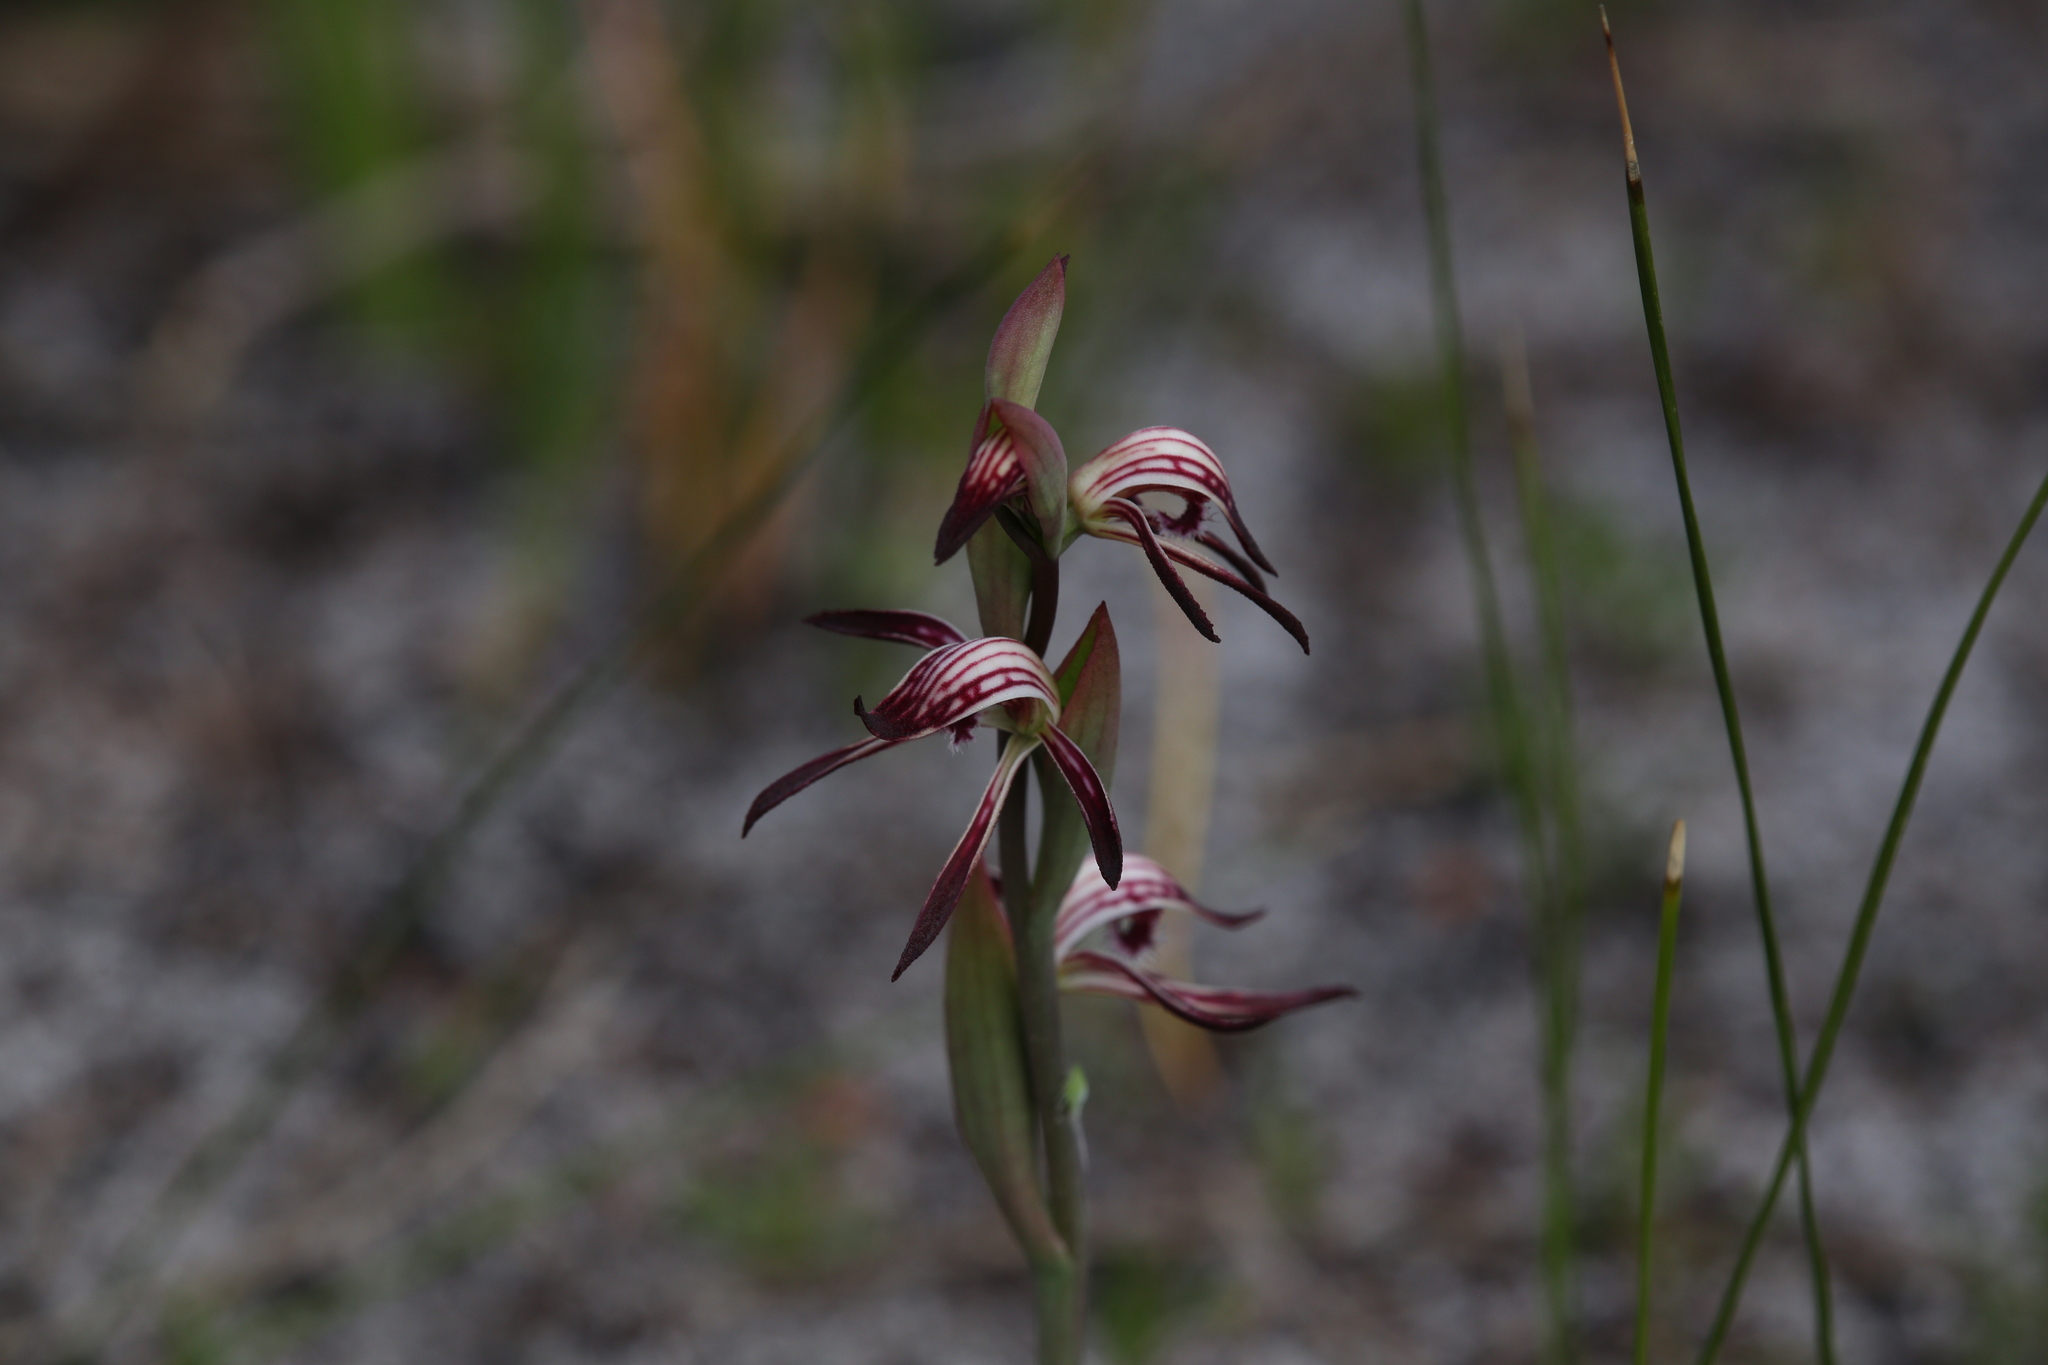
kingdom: Plantae
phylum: Tracheophyta
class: Liliopsida
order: Asparagales
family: Orchidaceae
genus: Pyrorchis
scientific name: Pyrorchis nigricans
